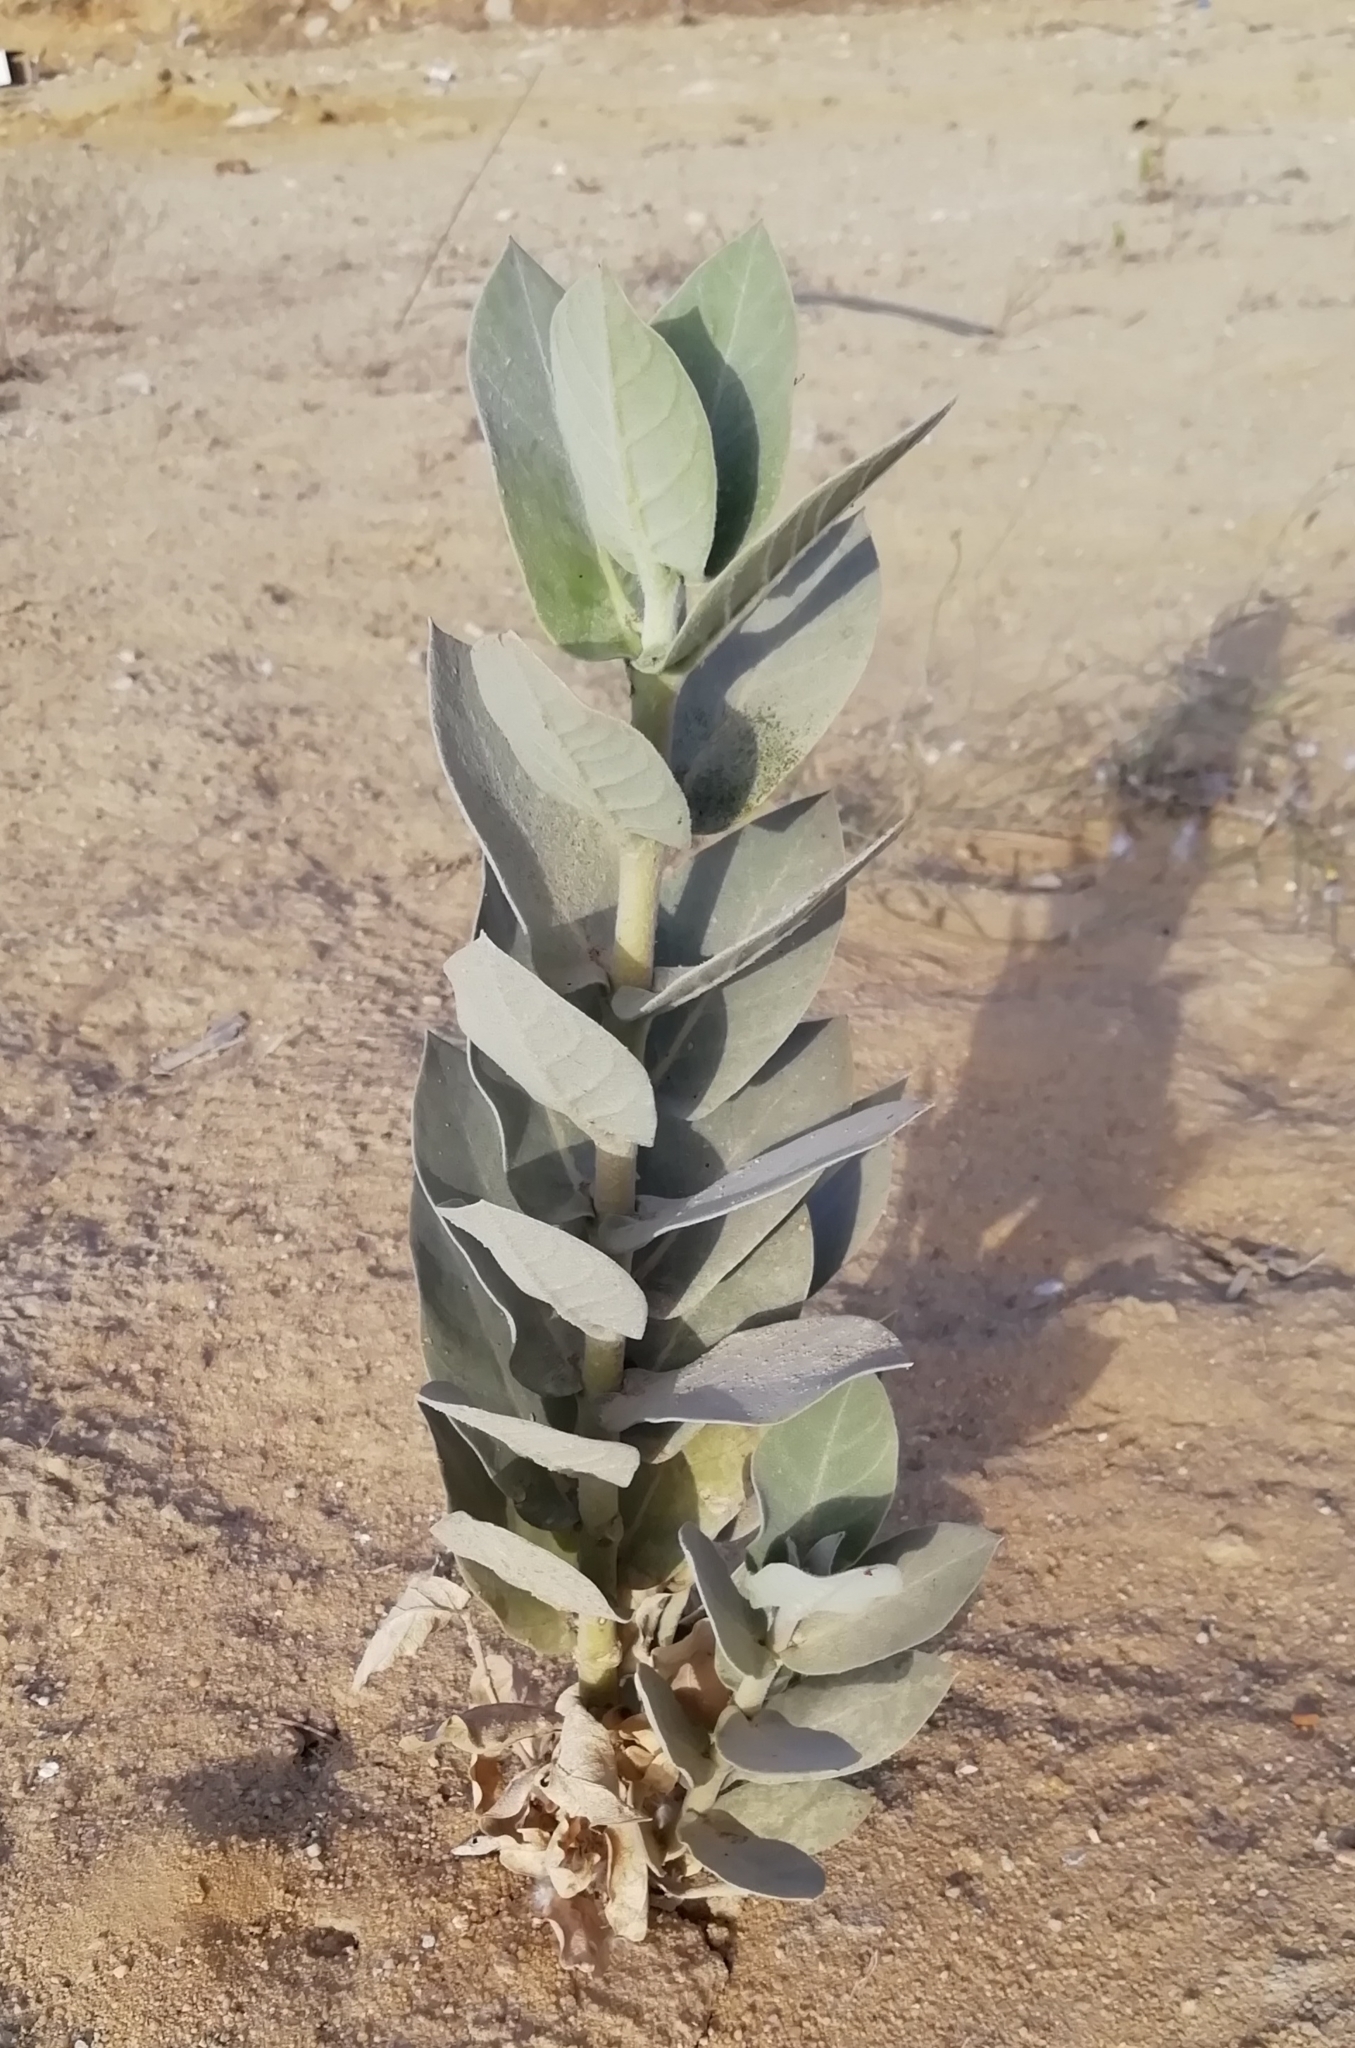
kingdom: Plantae
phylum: Tracheophyta
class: Magnoliopsida
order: Gentianales
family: Apocynaceae
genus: Calotropis
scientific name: Calotropis procera
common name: Roostertree
